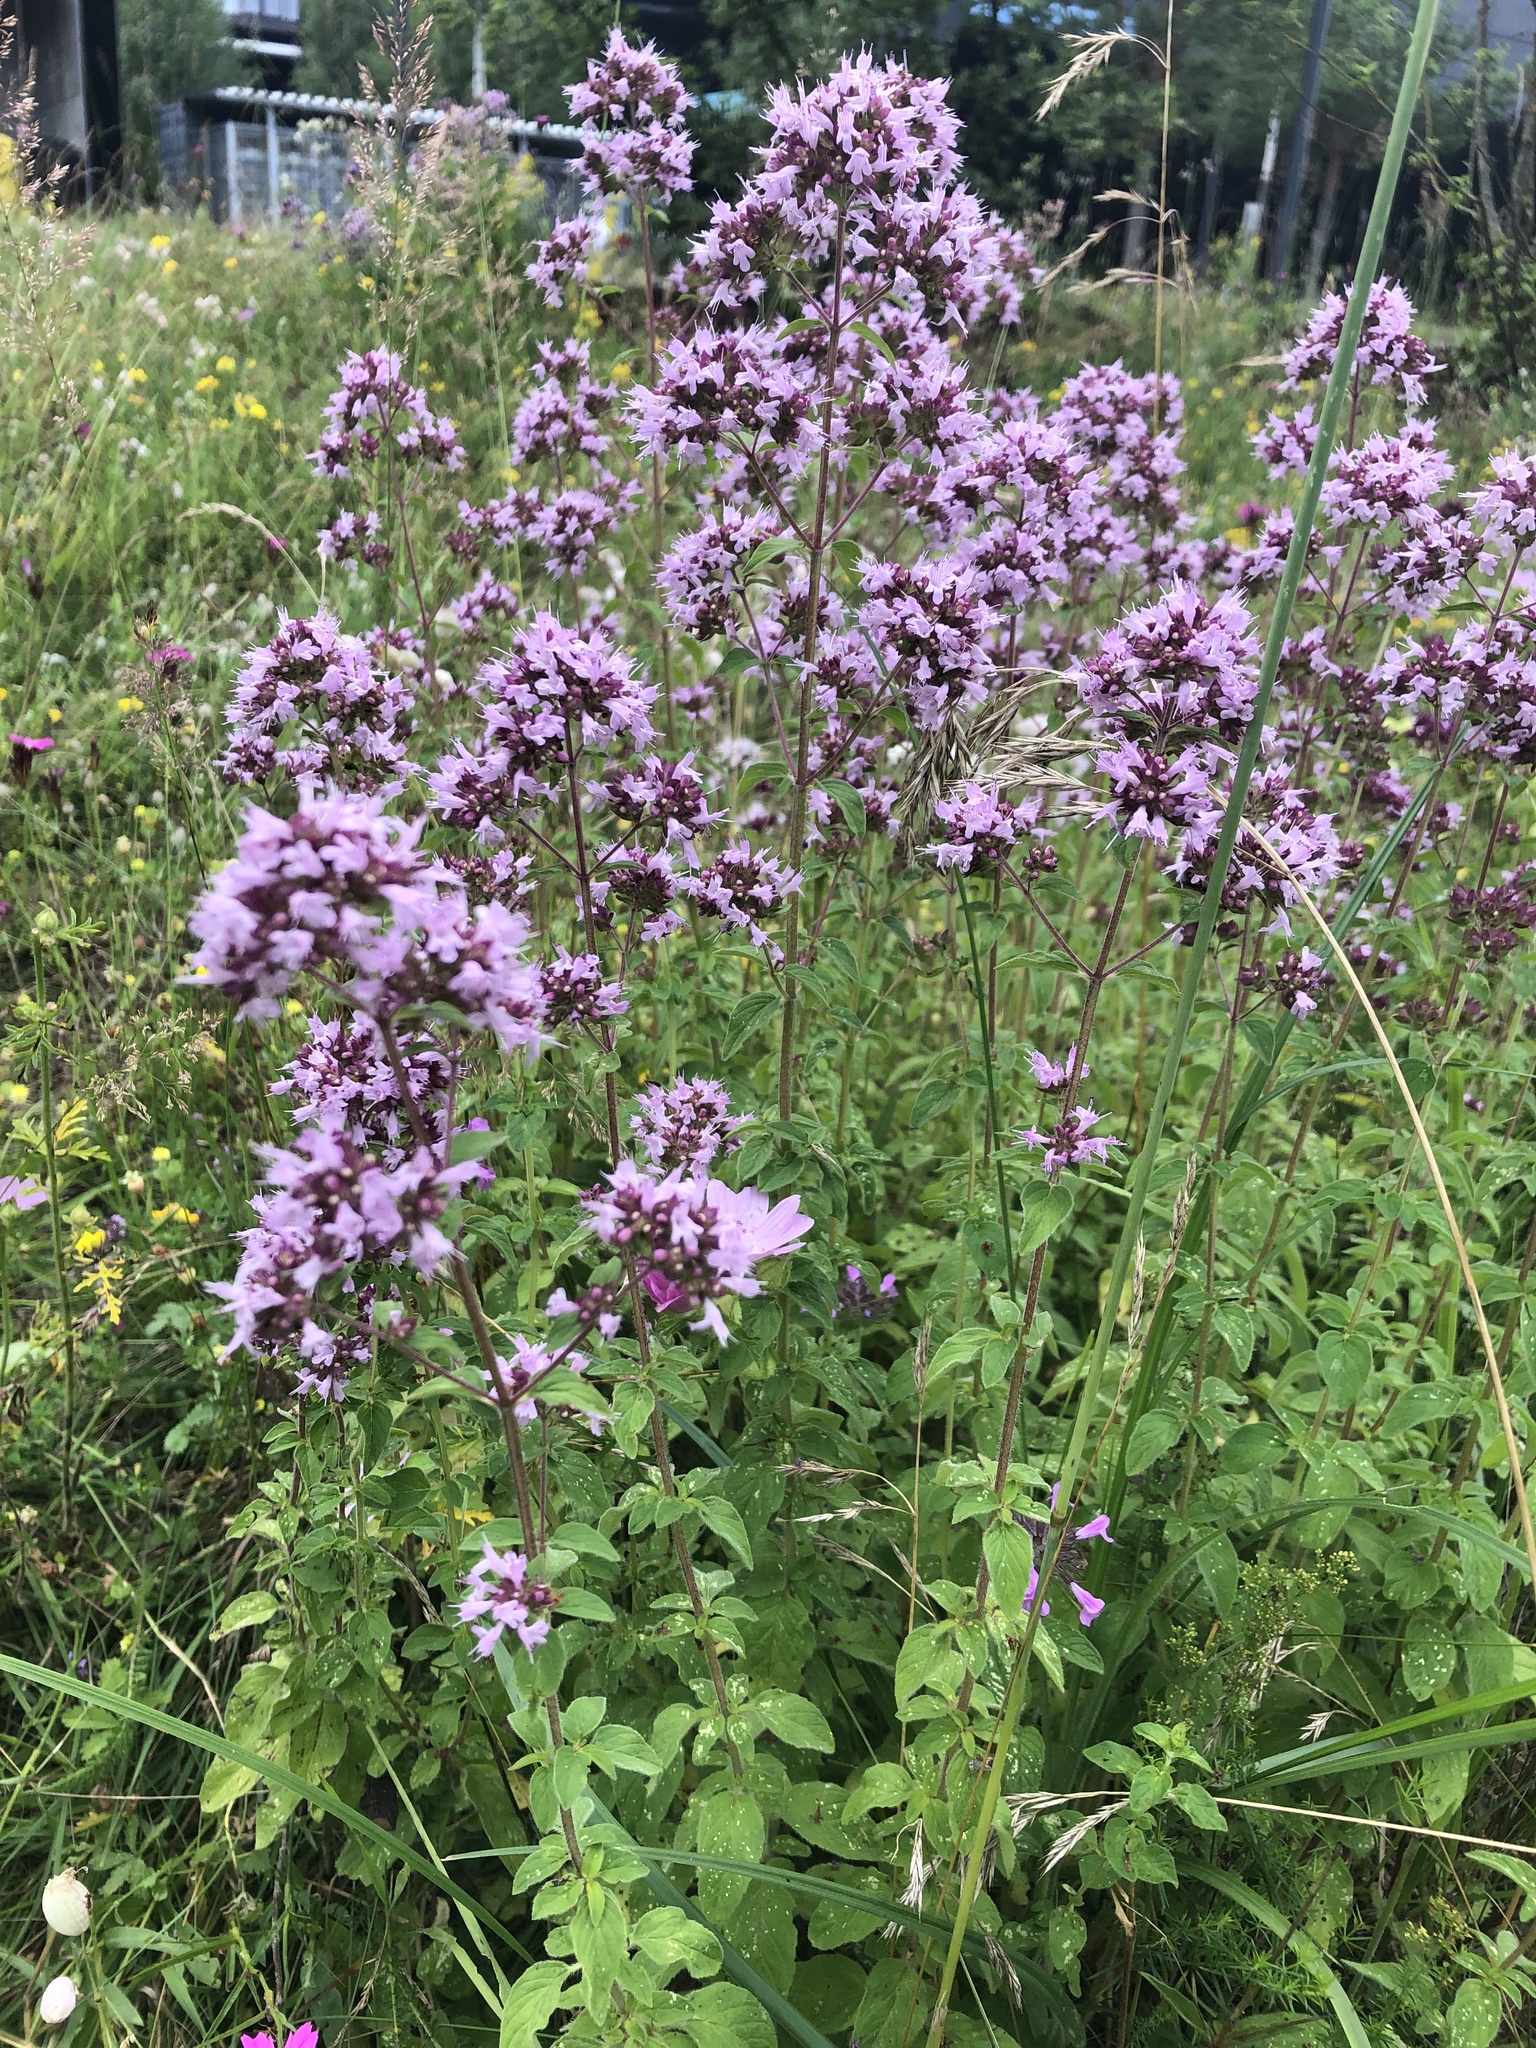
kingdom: Plantae
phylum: Tracheophyta
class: Magnoliopsida
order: Lamiales
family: Lamiaceae
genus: Origanum
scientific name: Origanum vulgare
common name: Wild marjoram
